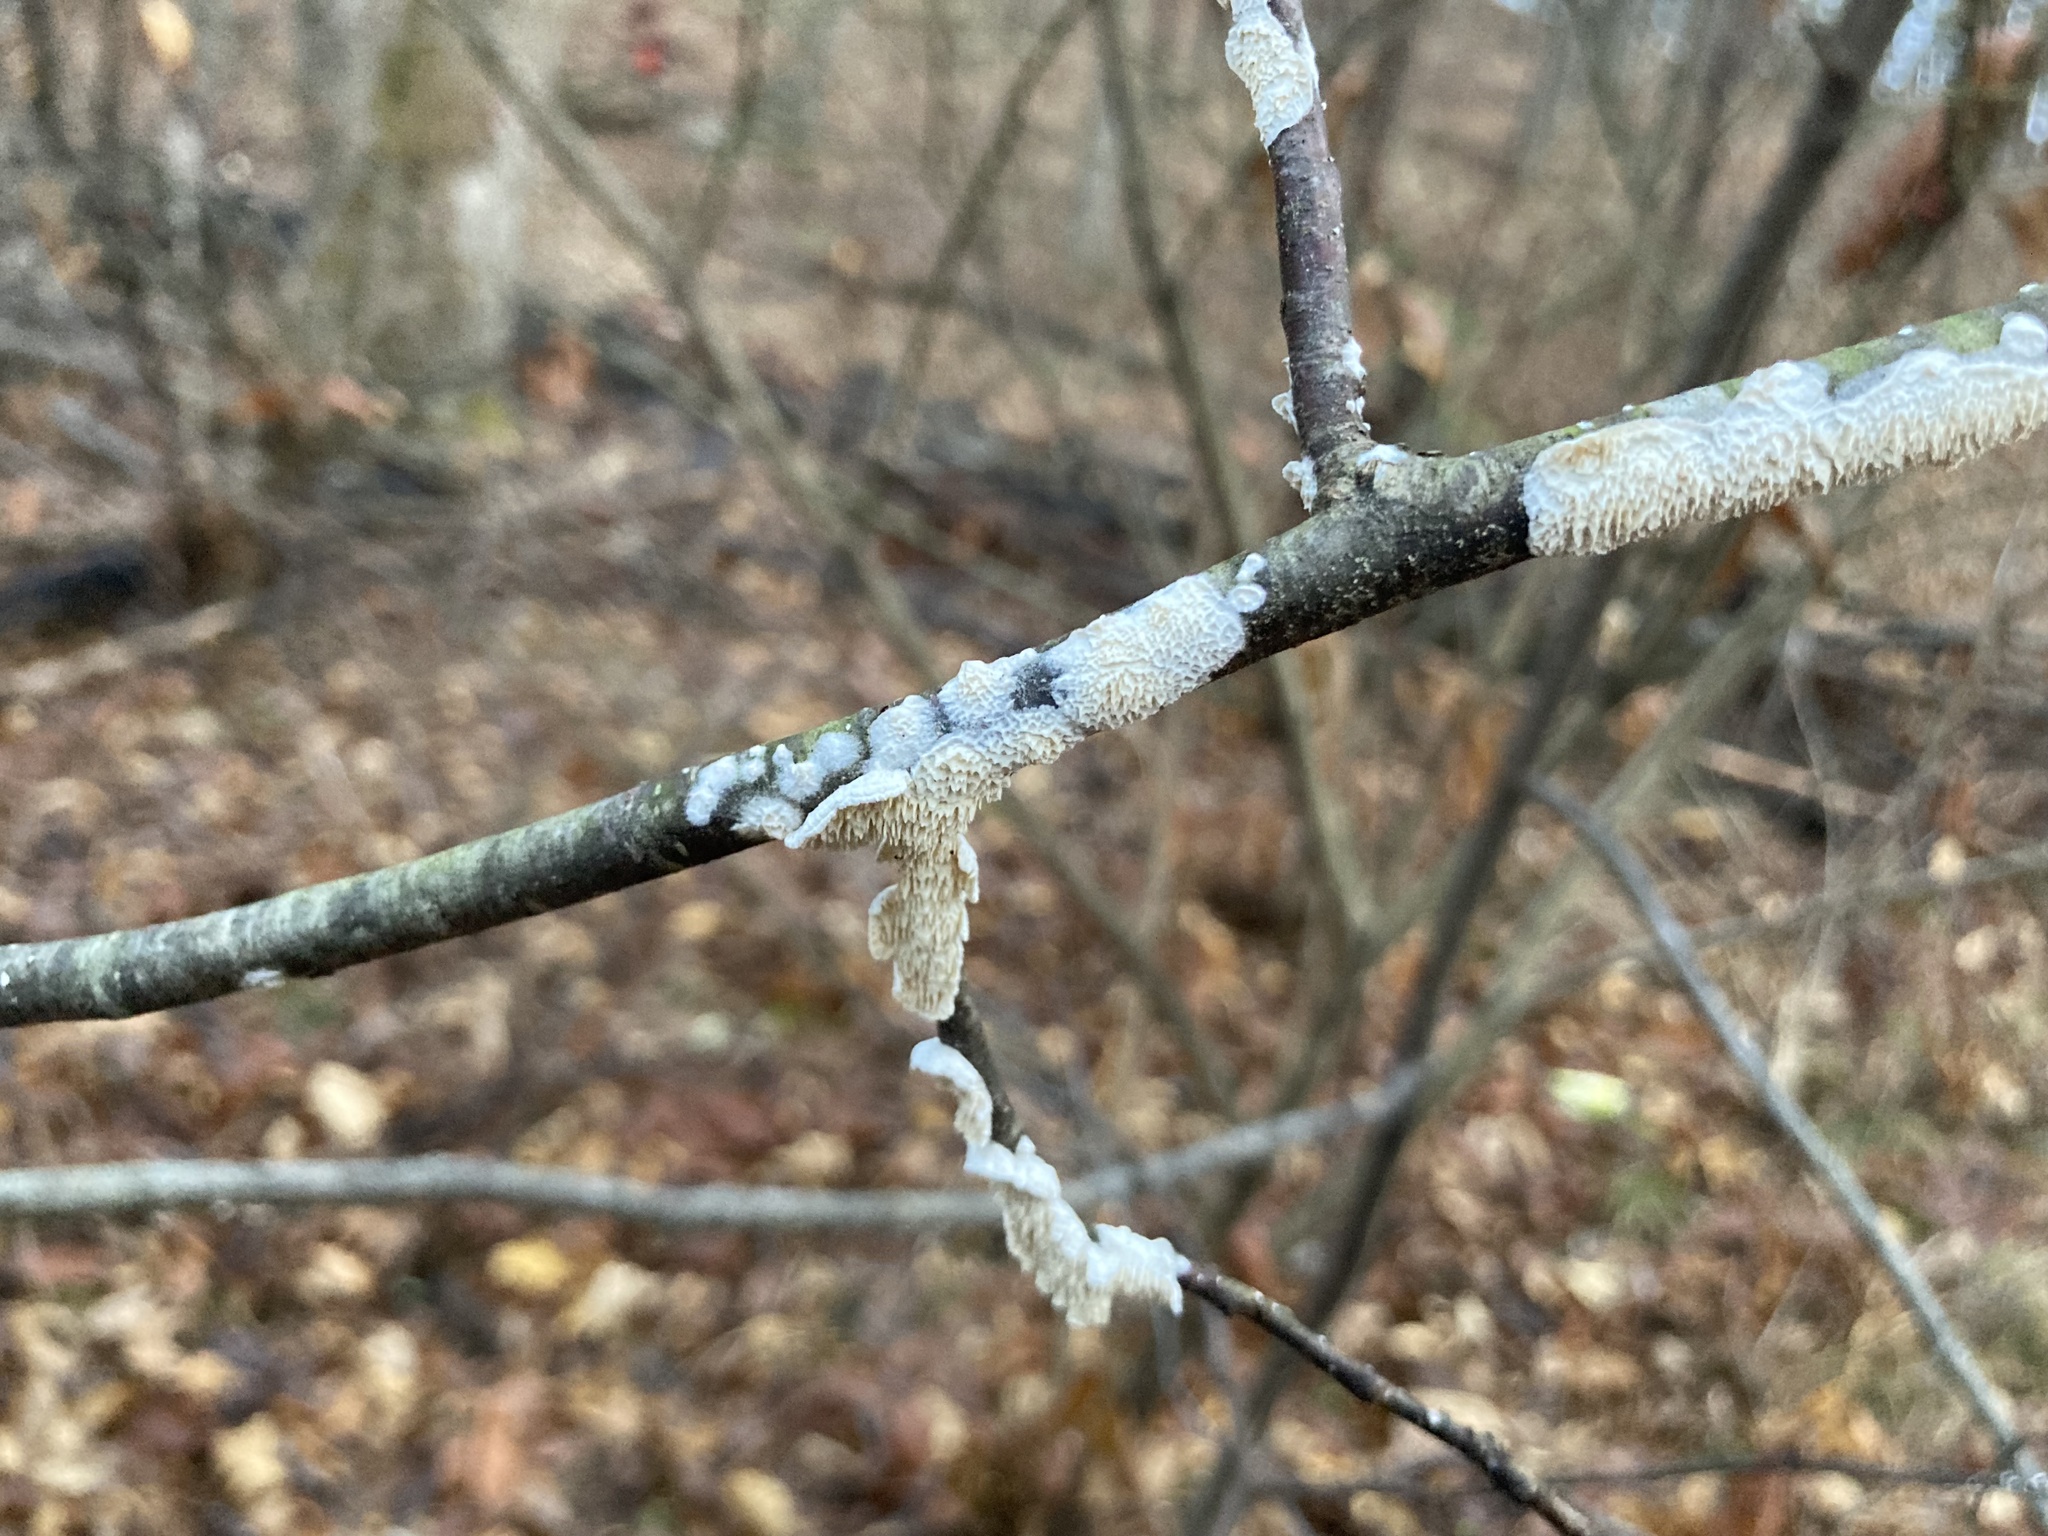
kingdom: Fungi
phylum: Basidiomycota
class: Agaricomycetes
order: Polyporales
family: Irpicaceae
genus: Irpex
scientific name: Irpex lacteus
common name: Milk-white toothed polypore
